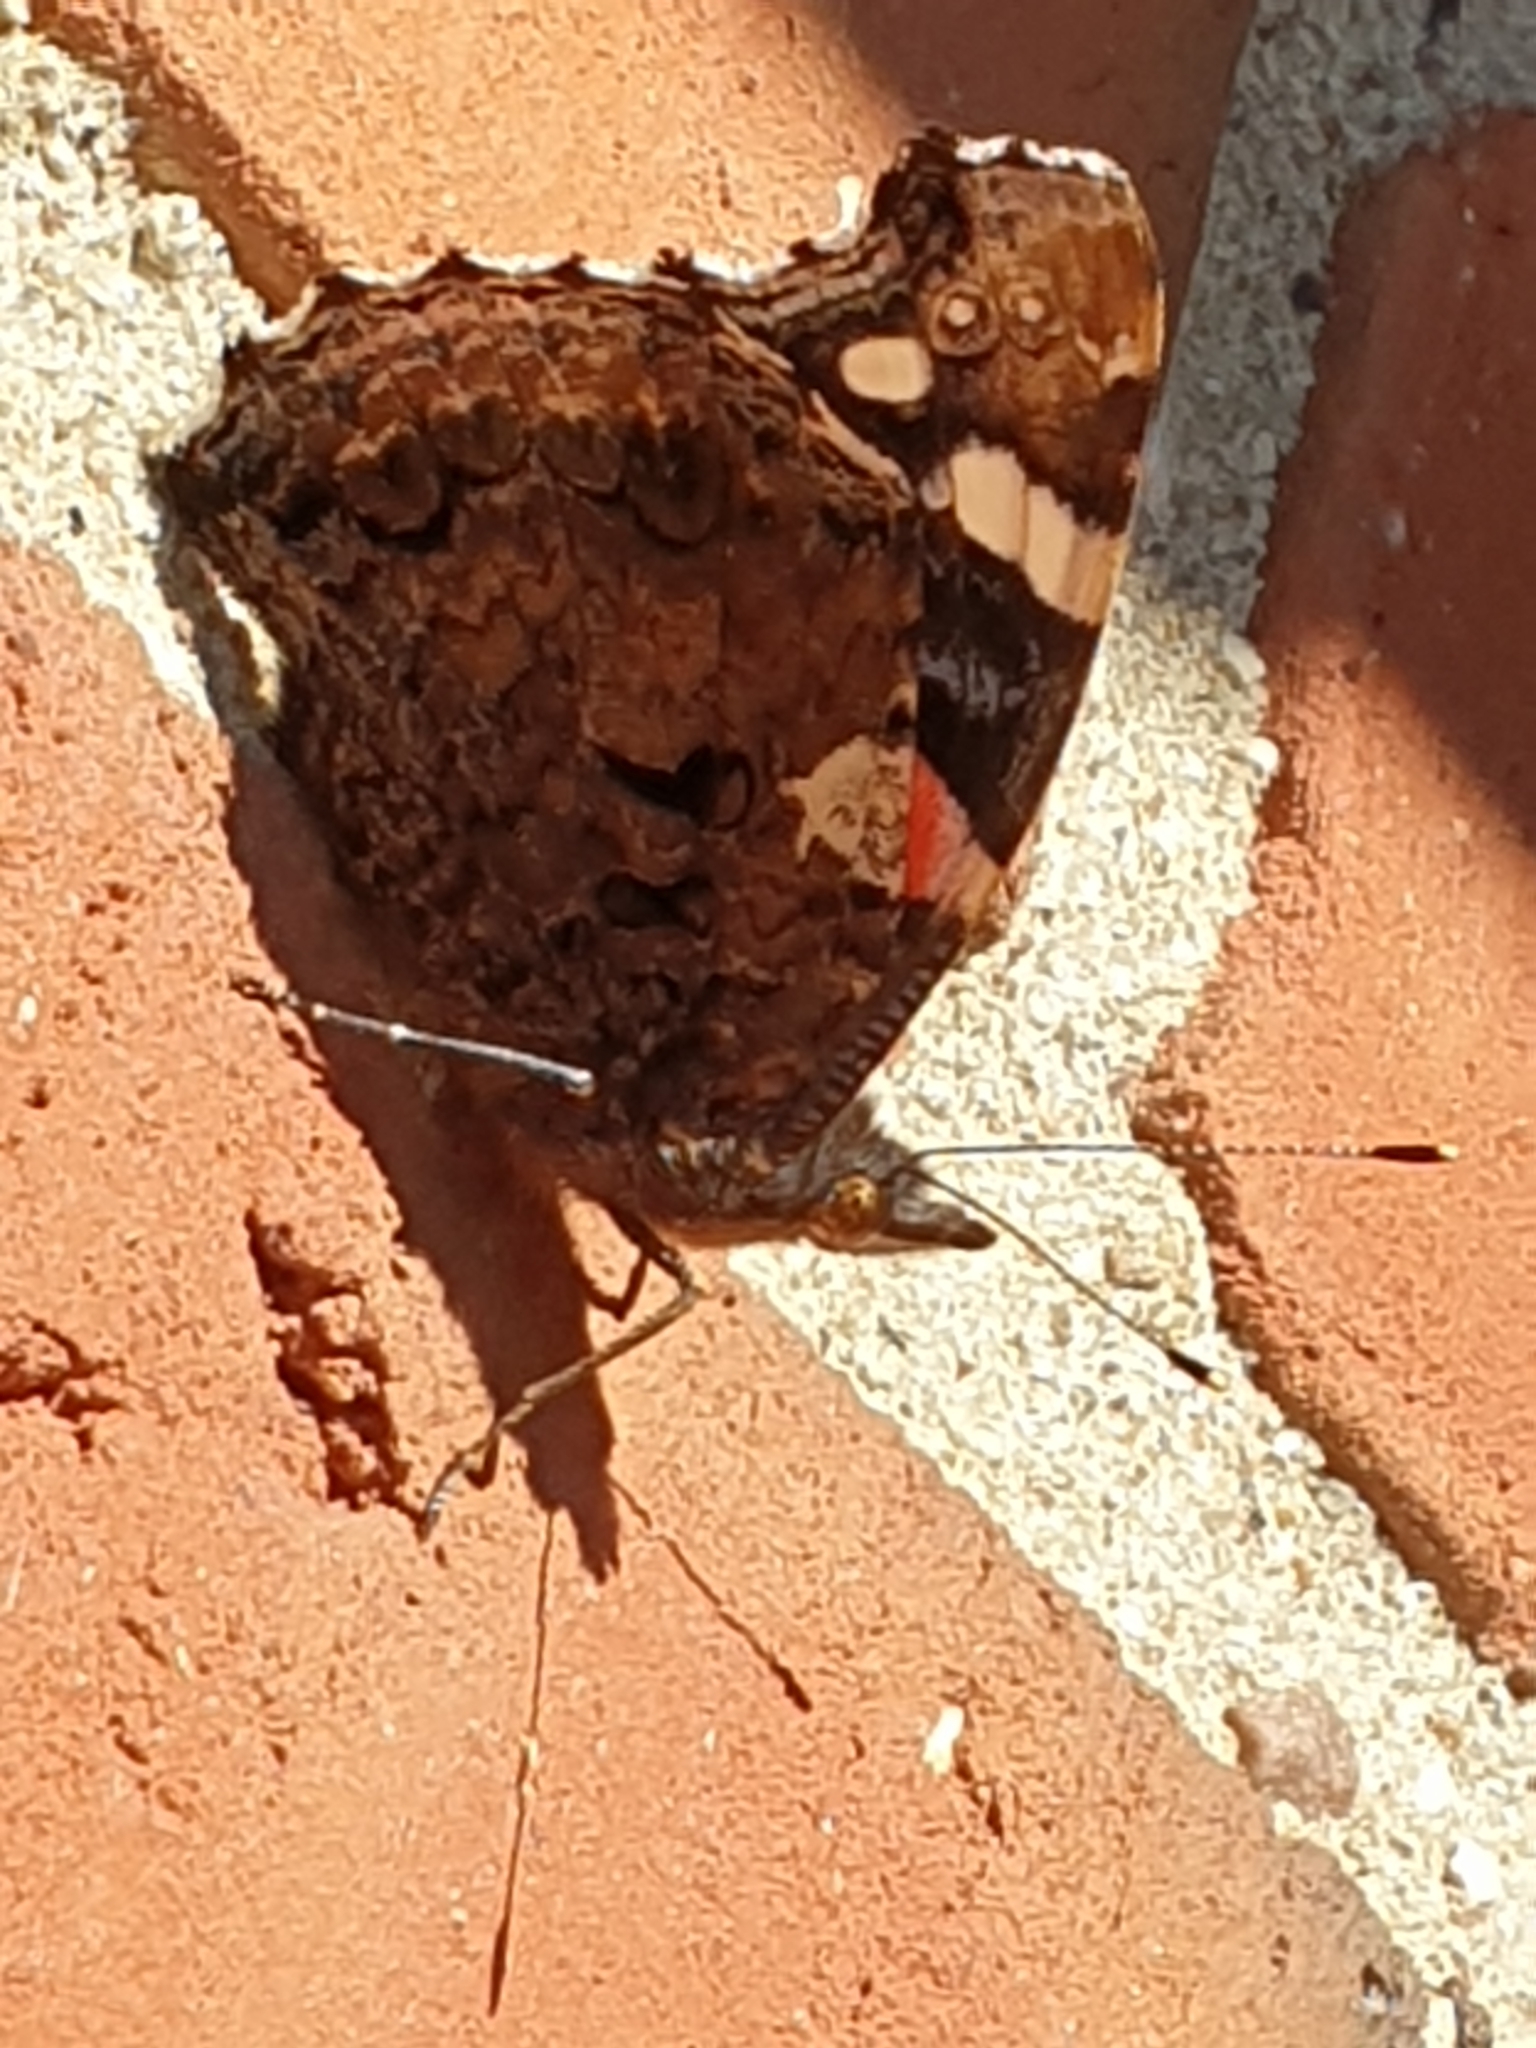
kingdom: Animalia
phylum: Arthropoda
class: Insecta
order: Lepidoptera
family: Nymphalidae
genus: Vanessa
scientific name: Vanessa atalanta
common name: Red admiral
